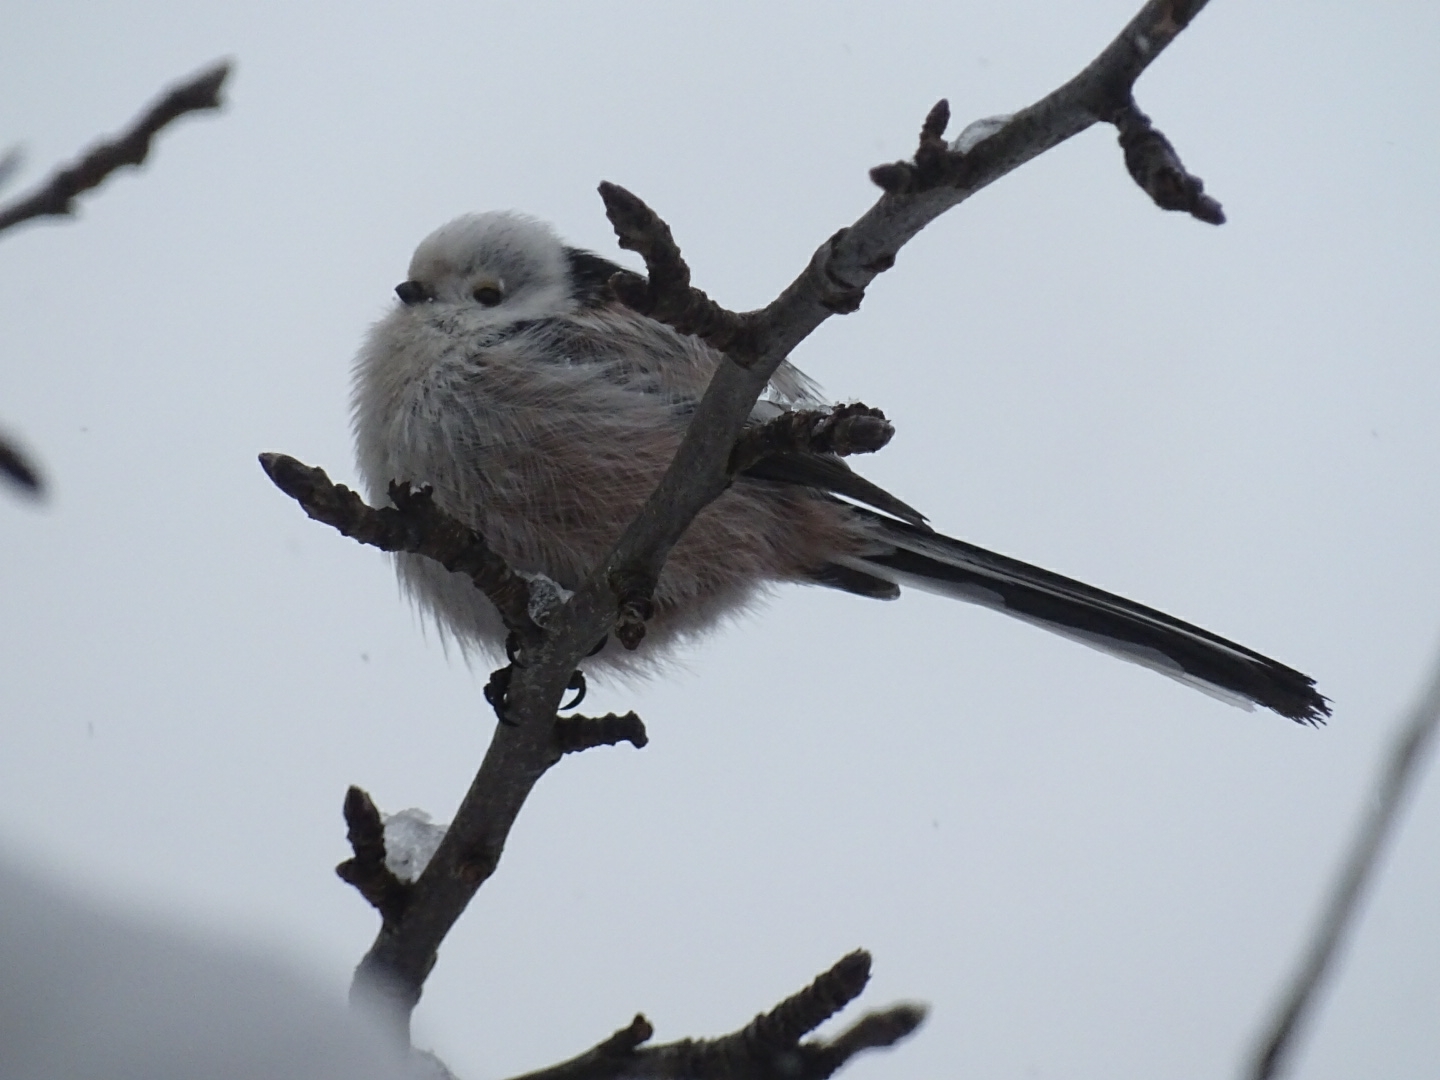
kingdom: Animalia
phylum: Chordata
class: Aves
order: Passeriformes
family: Aegithalidae
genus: Aegithalos
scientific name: Aegithalos caudatus
